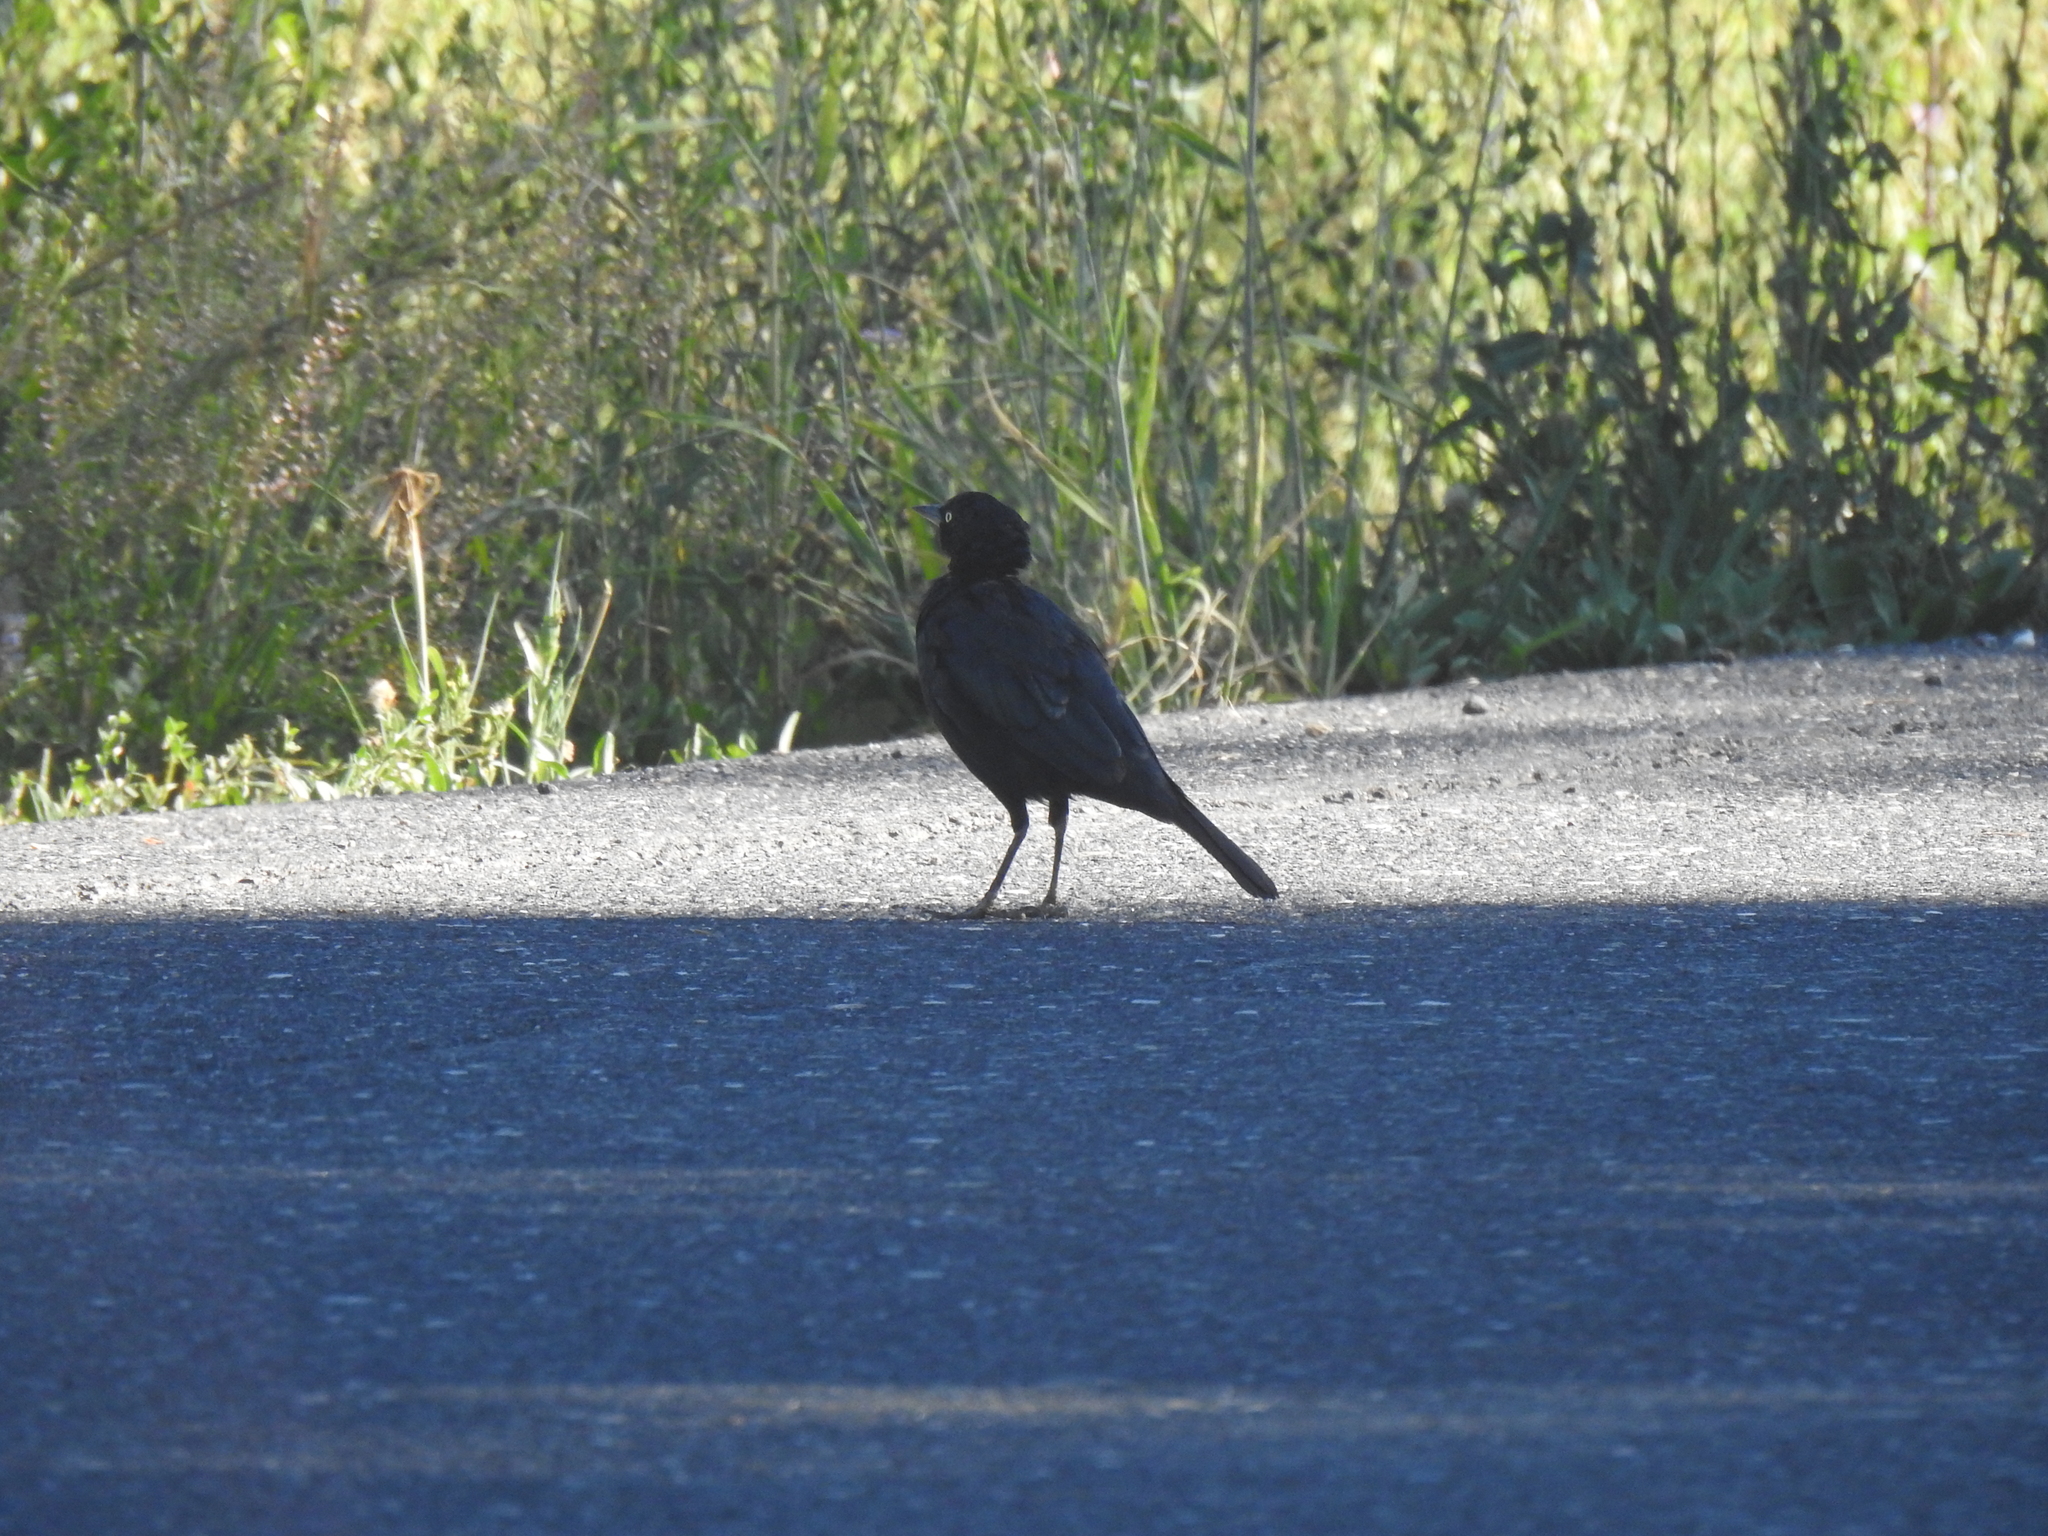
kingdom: Animalia
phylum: Chordata
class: Aves
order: Passeriformes
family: Icteridae
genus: Euphagus
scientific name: Euphagus cyanocephalus
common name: Brewer's blackbird
